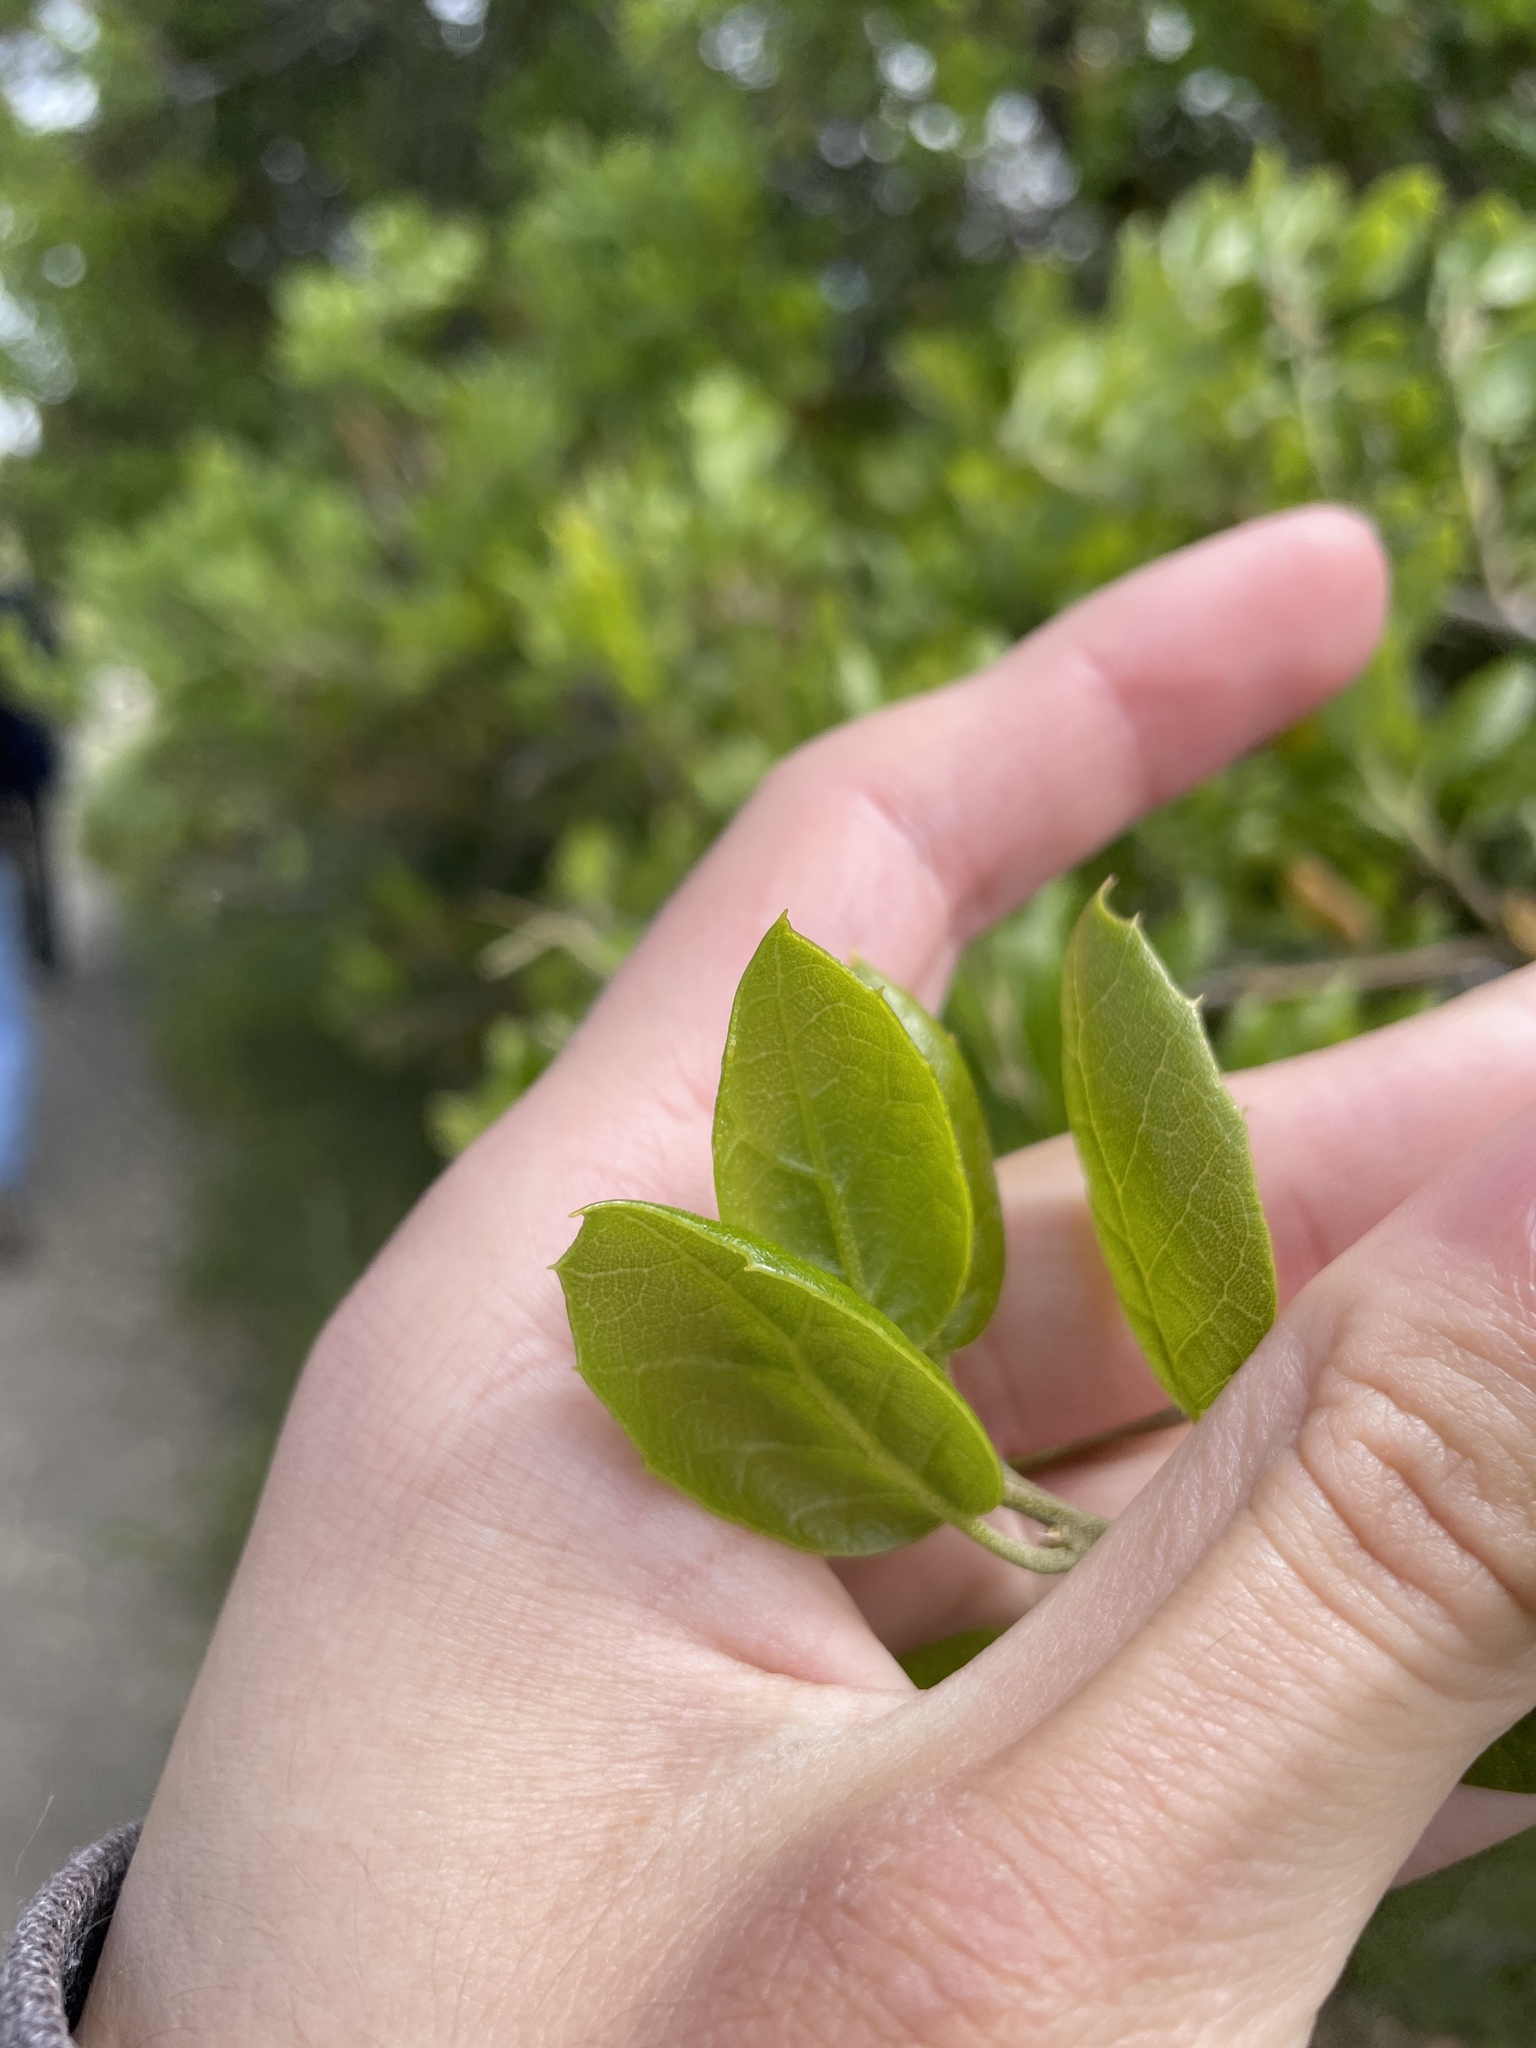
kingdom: Plantae
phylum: Tracheophyta
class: Magnoliopsida
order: Fagales
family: Fagaceae
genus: Quercus
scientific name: Quercus agrifolia
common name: California live oak
